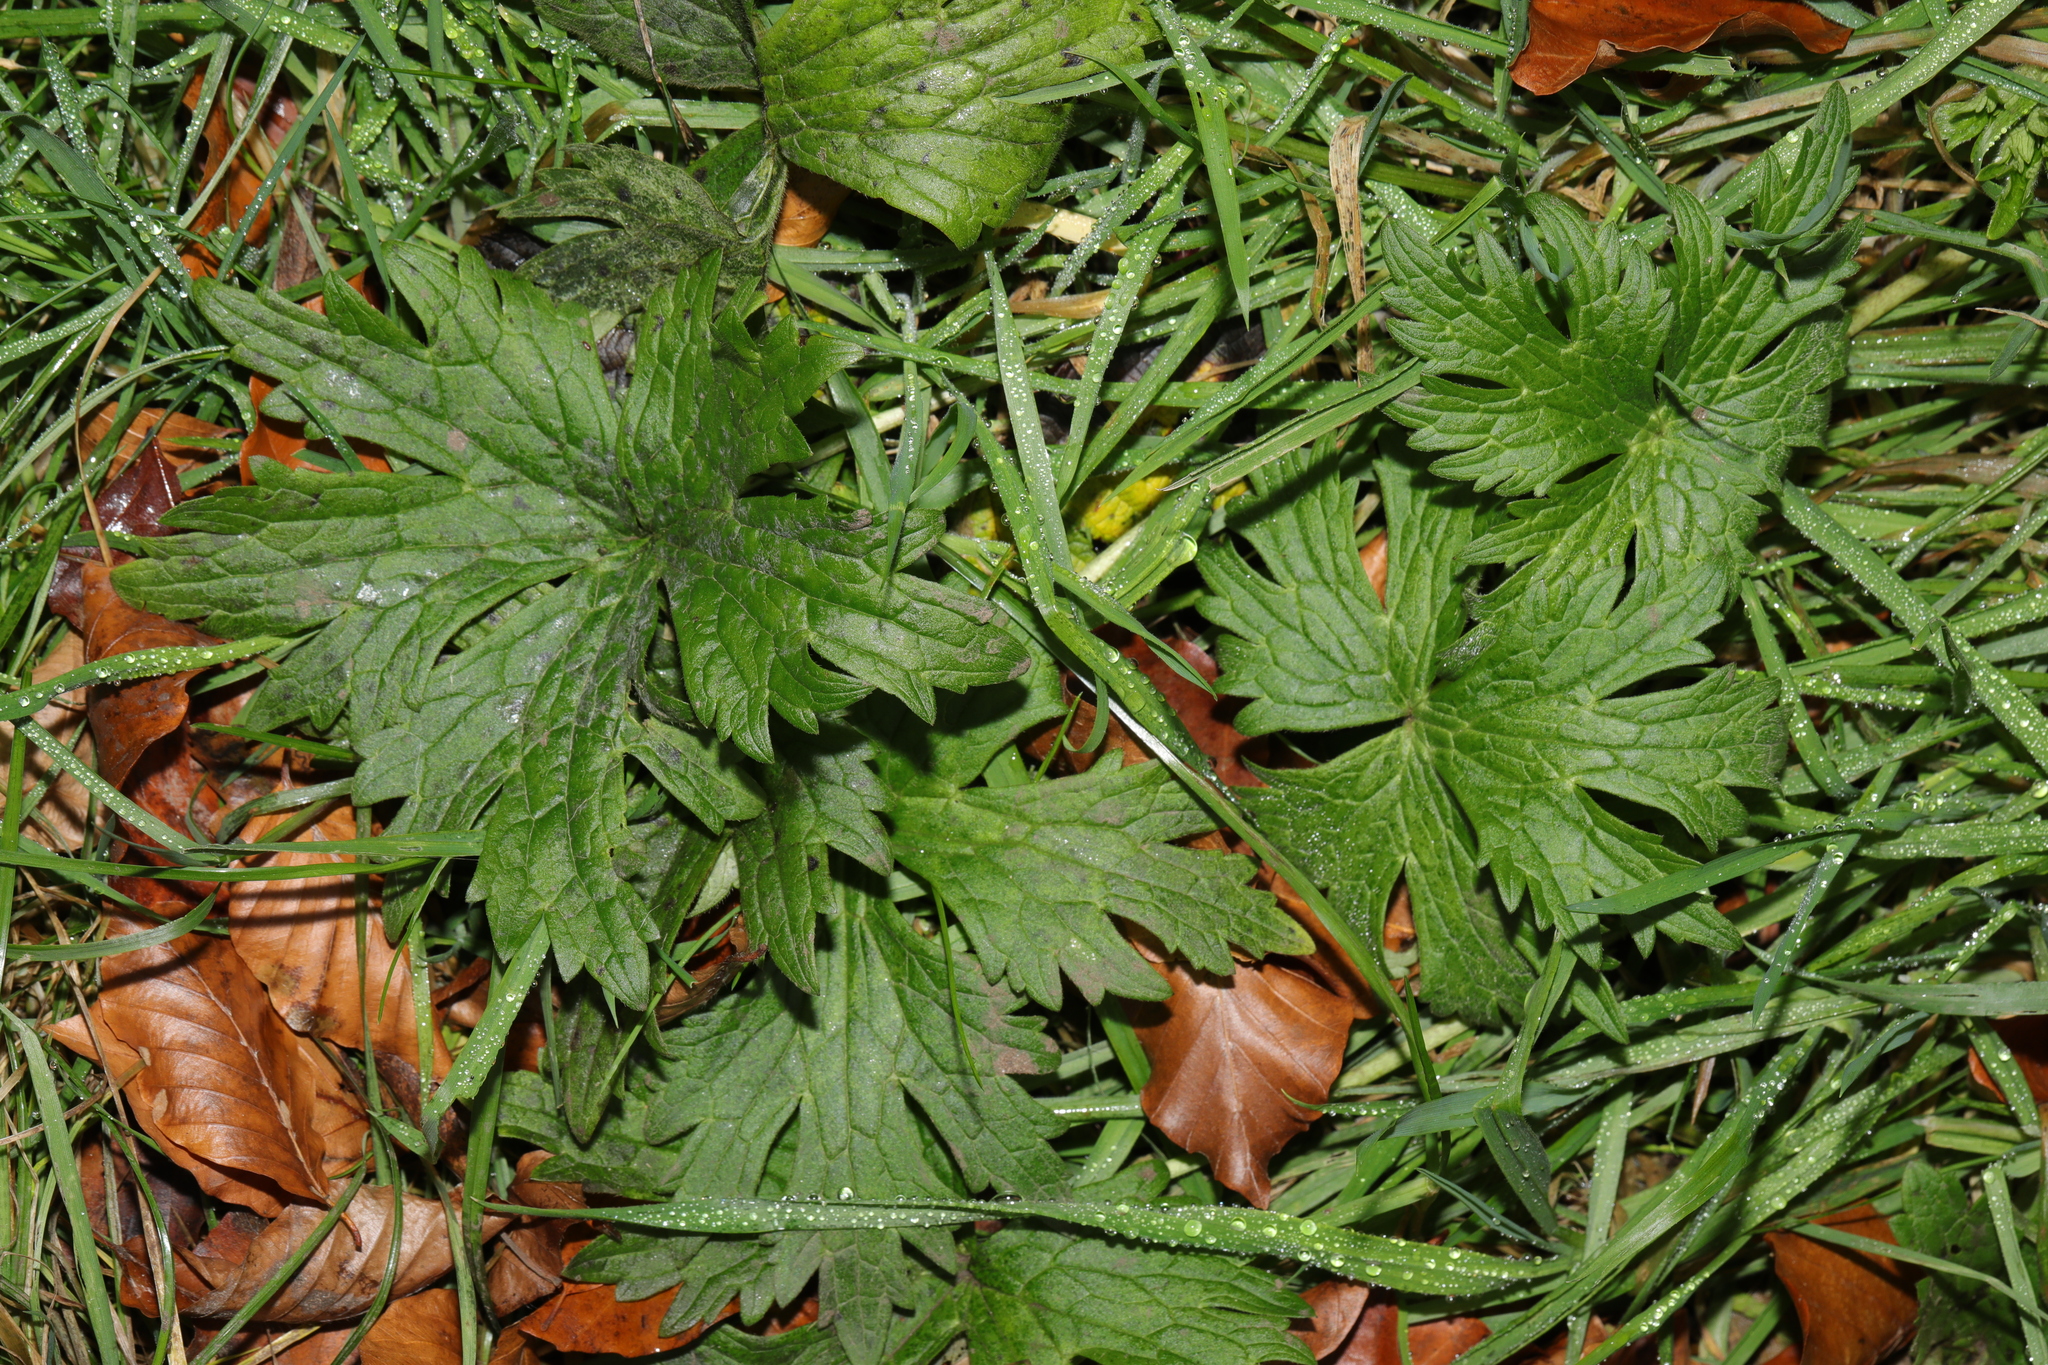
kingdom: Plantae
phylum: Tracheophyta
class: Magnoliopsida
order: Ranunculales
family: Ranunculaceae
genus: Ranunculus
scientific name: Ranunculus acris
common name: Meadow buttercup
